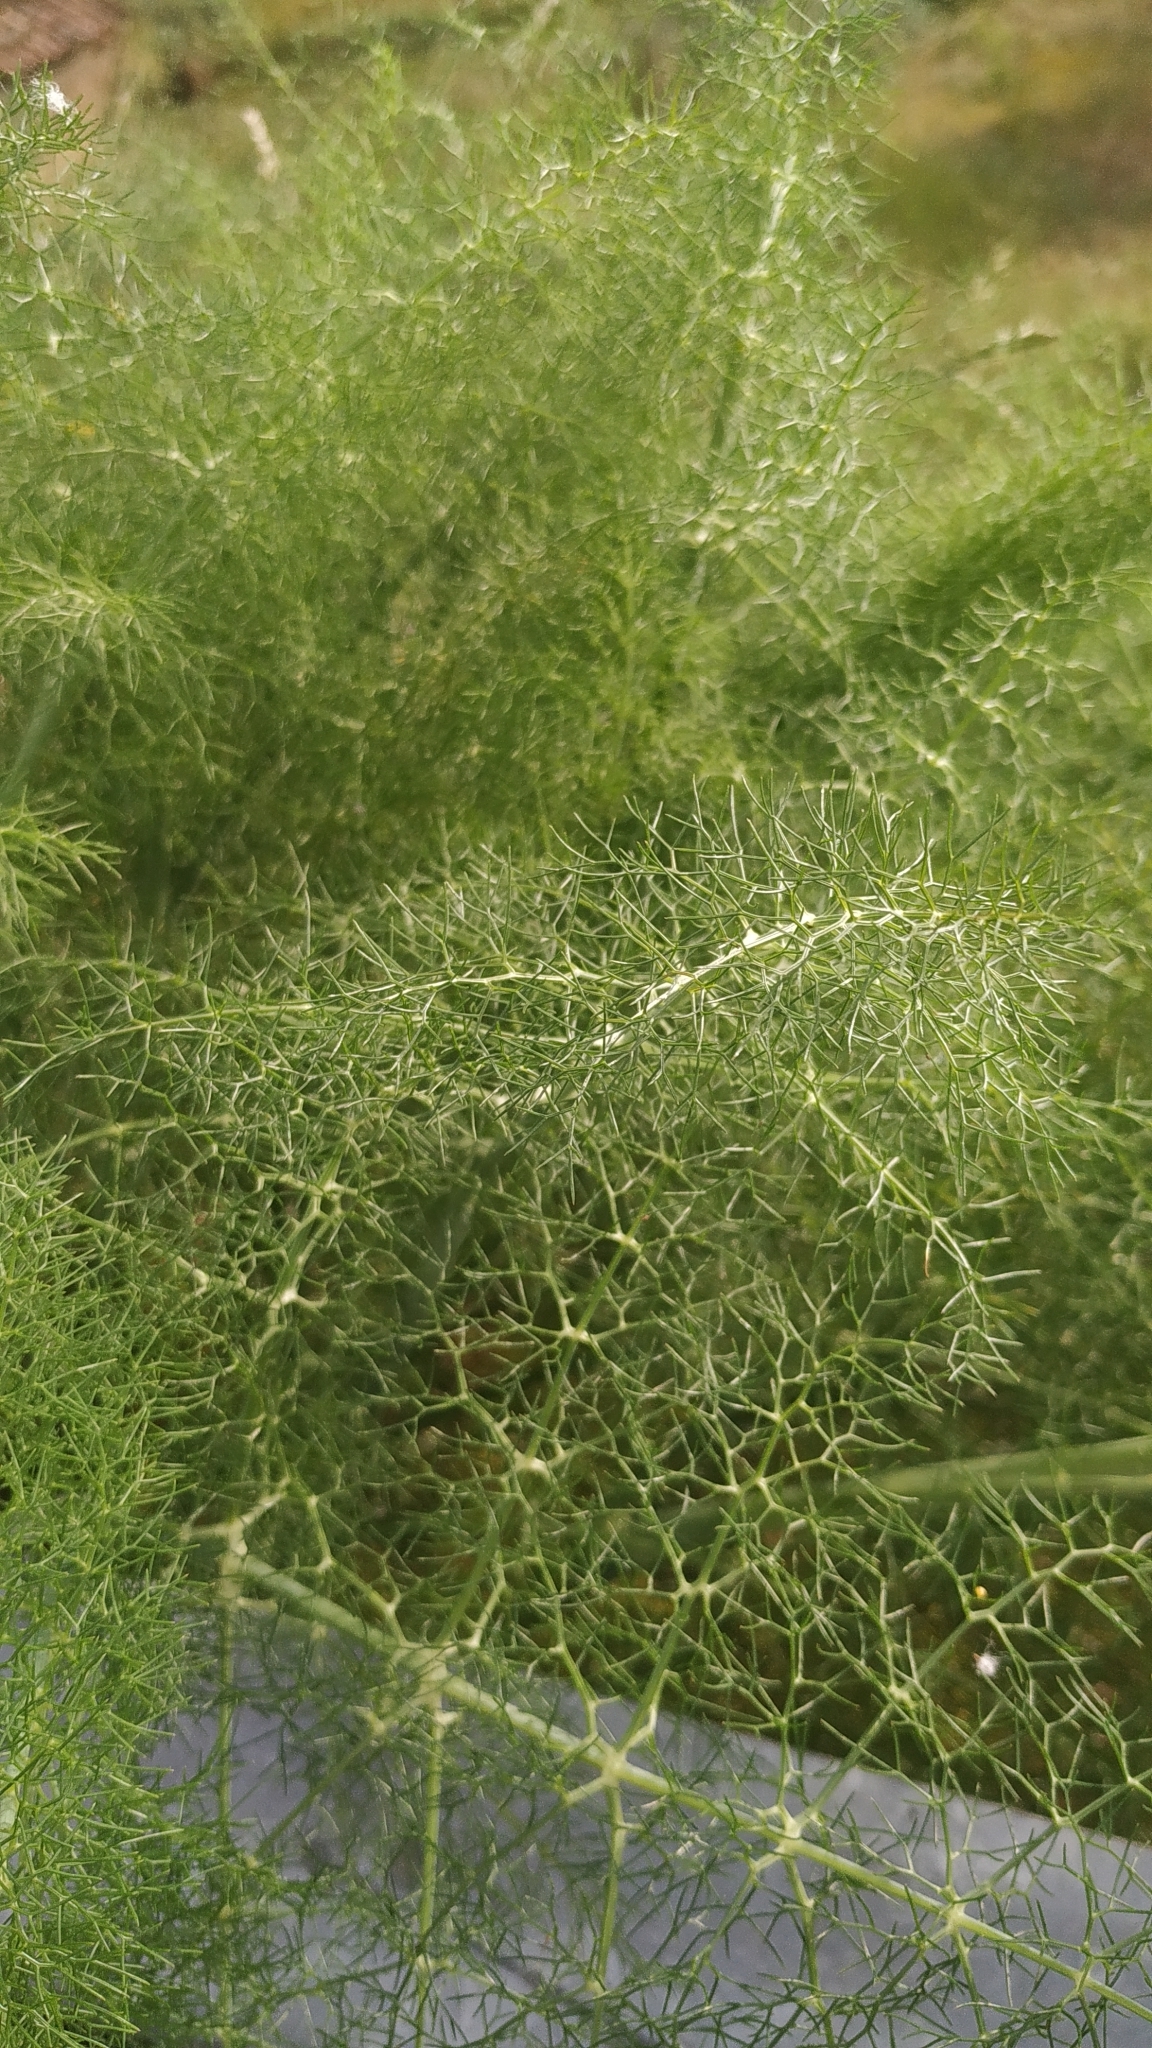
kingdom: Plantae
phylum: Tracheophyta
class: Magnoliopsida
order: Apiales
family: Apiaceae
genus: Foeniculum
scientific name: Foeniculum vulgare
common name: Fennel
